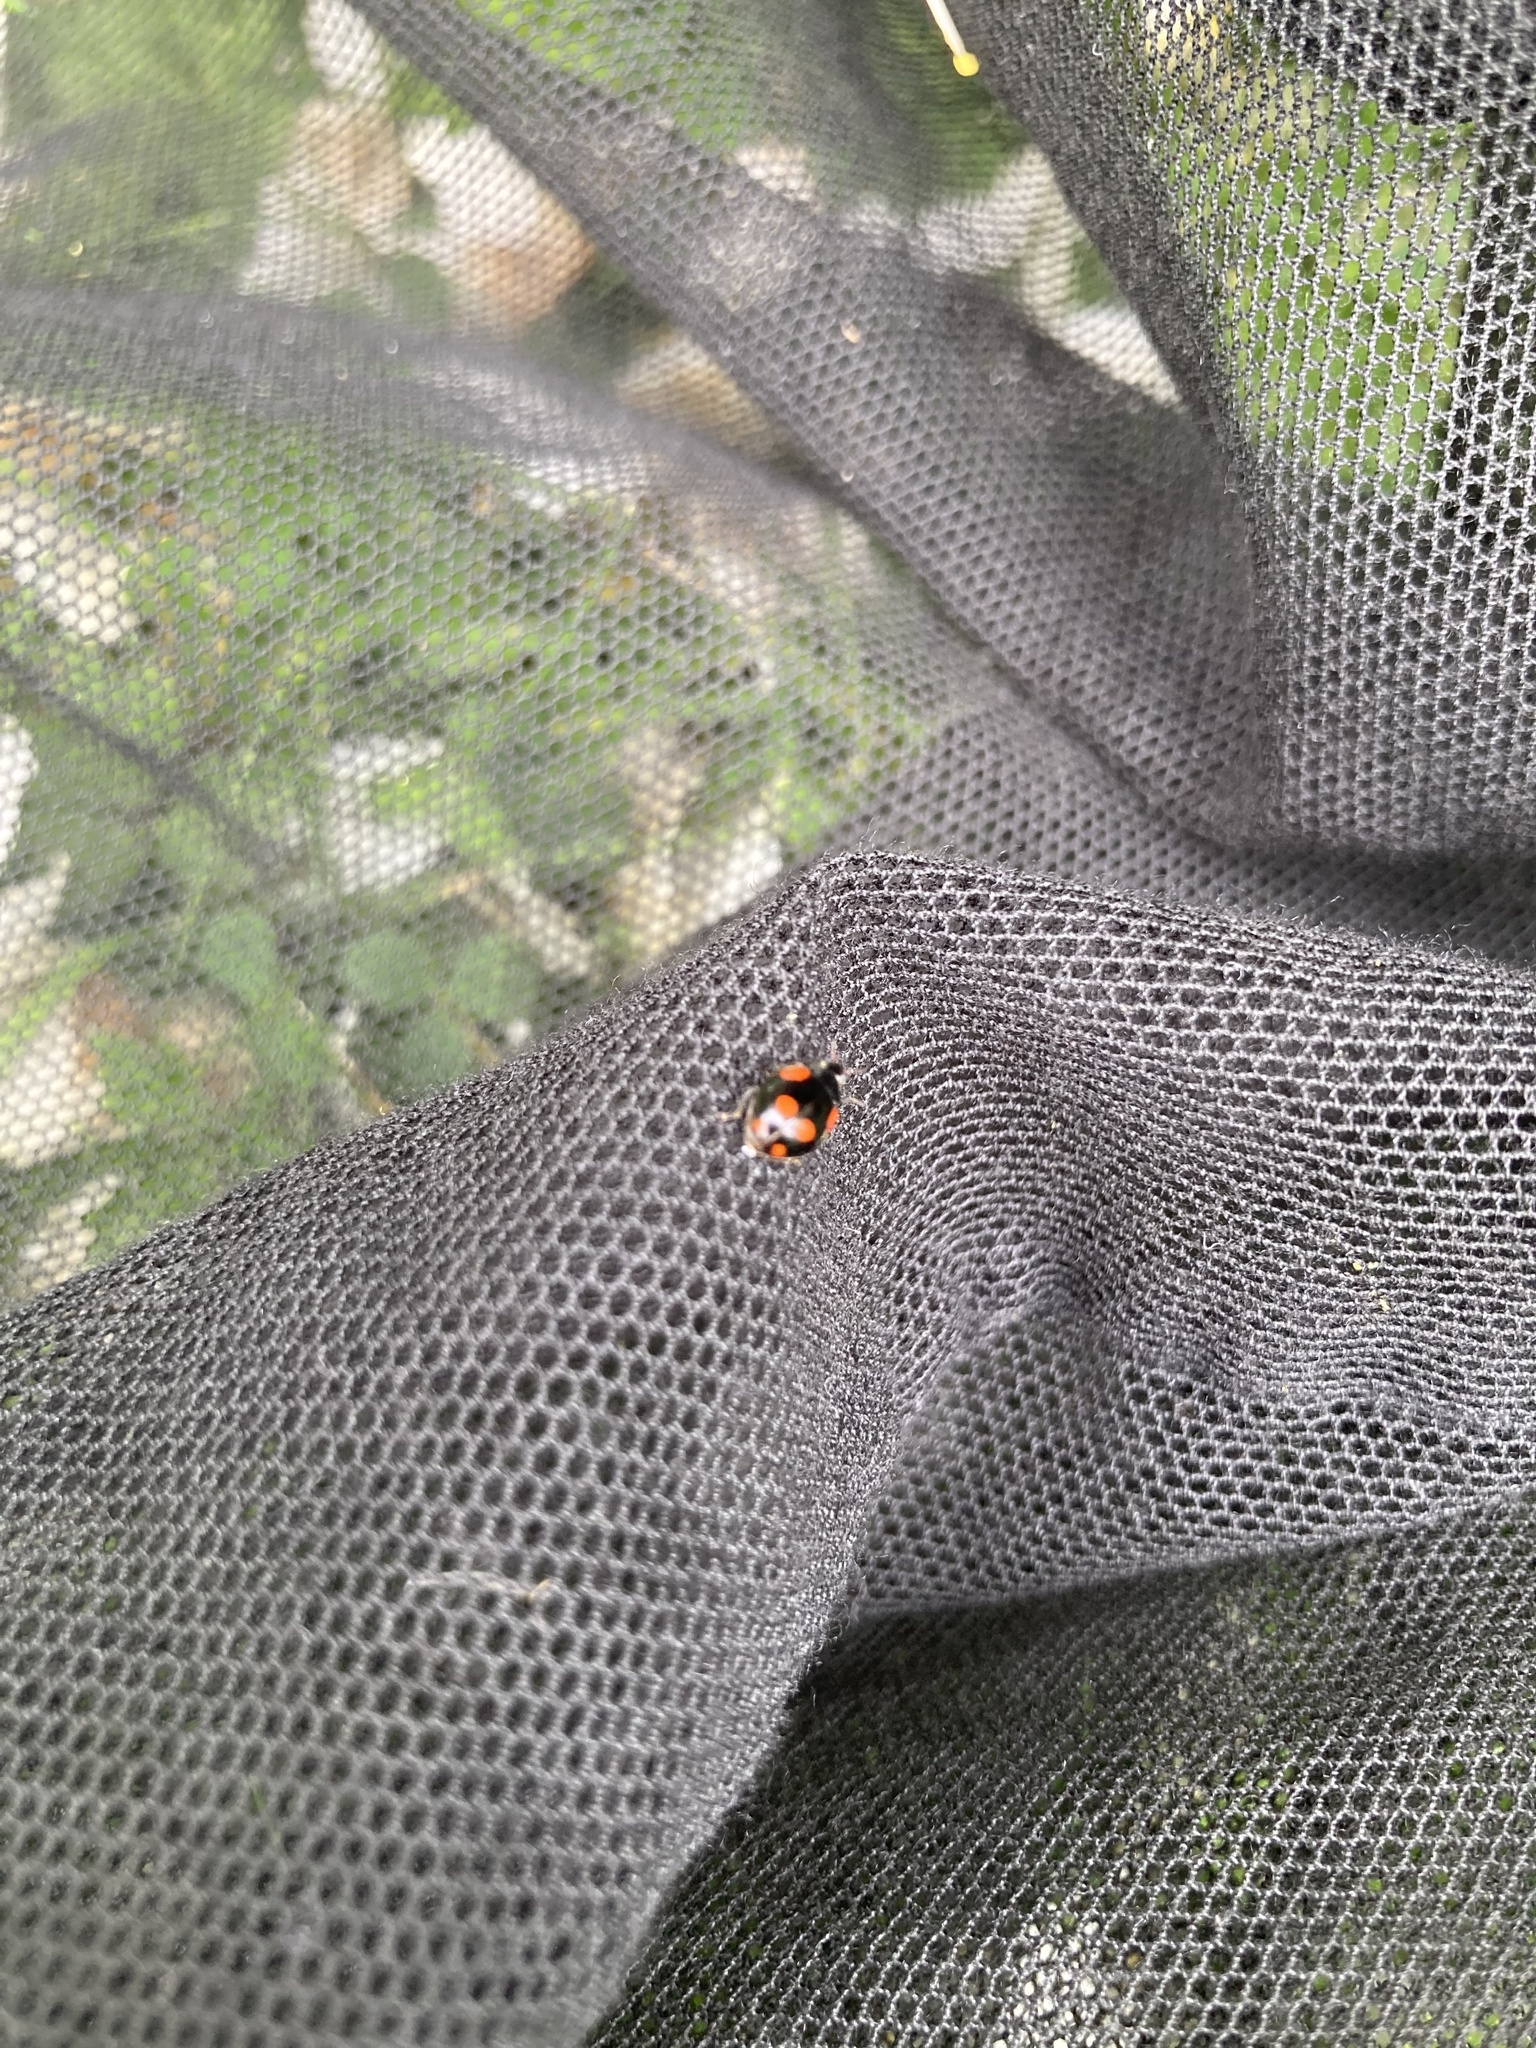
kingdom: Animalia
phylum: Arthropoda
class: Insecta
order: Coleoptera
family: Coccinellidae
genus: Adalia
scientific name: Adalia bipunctata
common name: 2-spot ladybird
